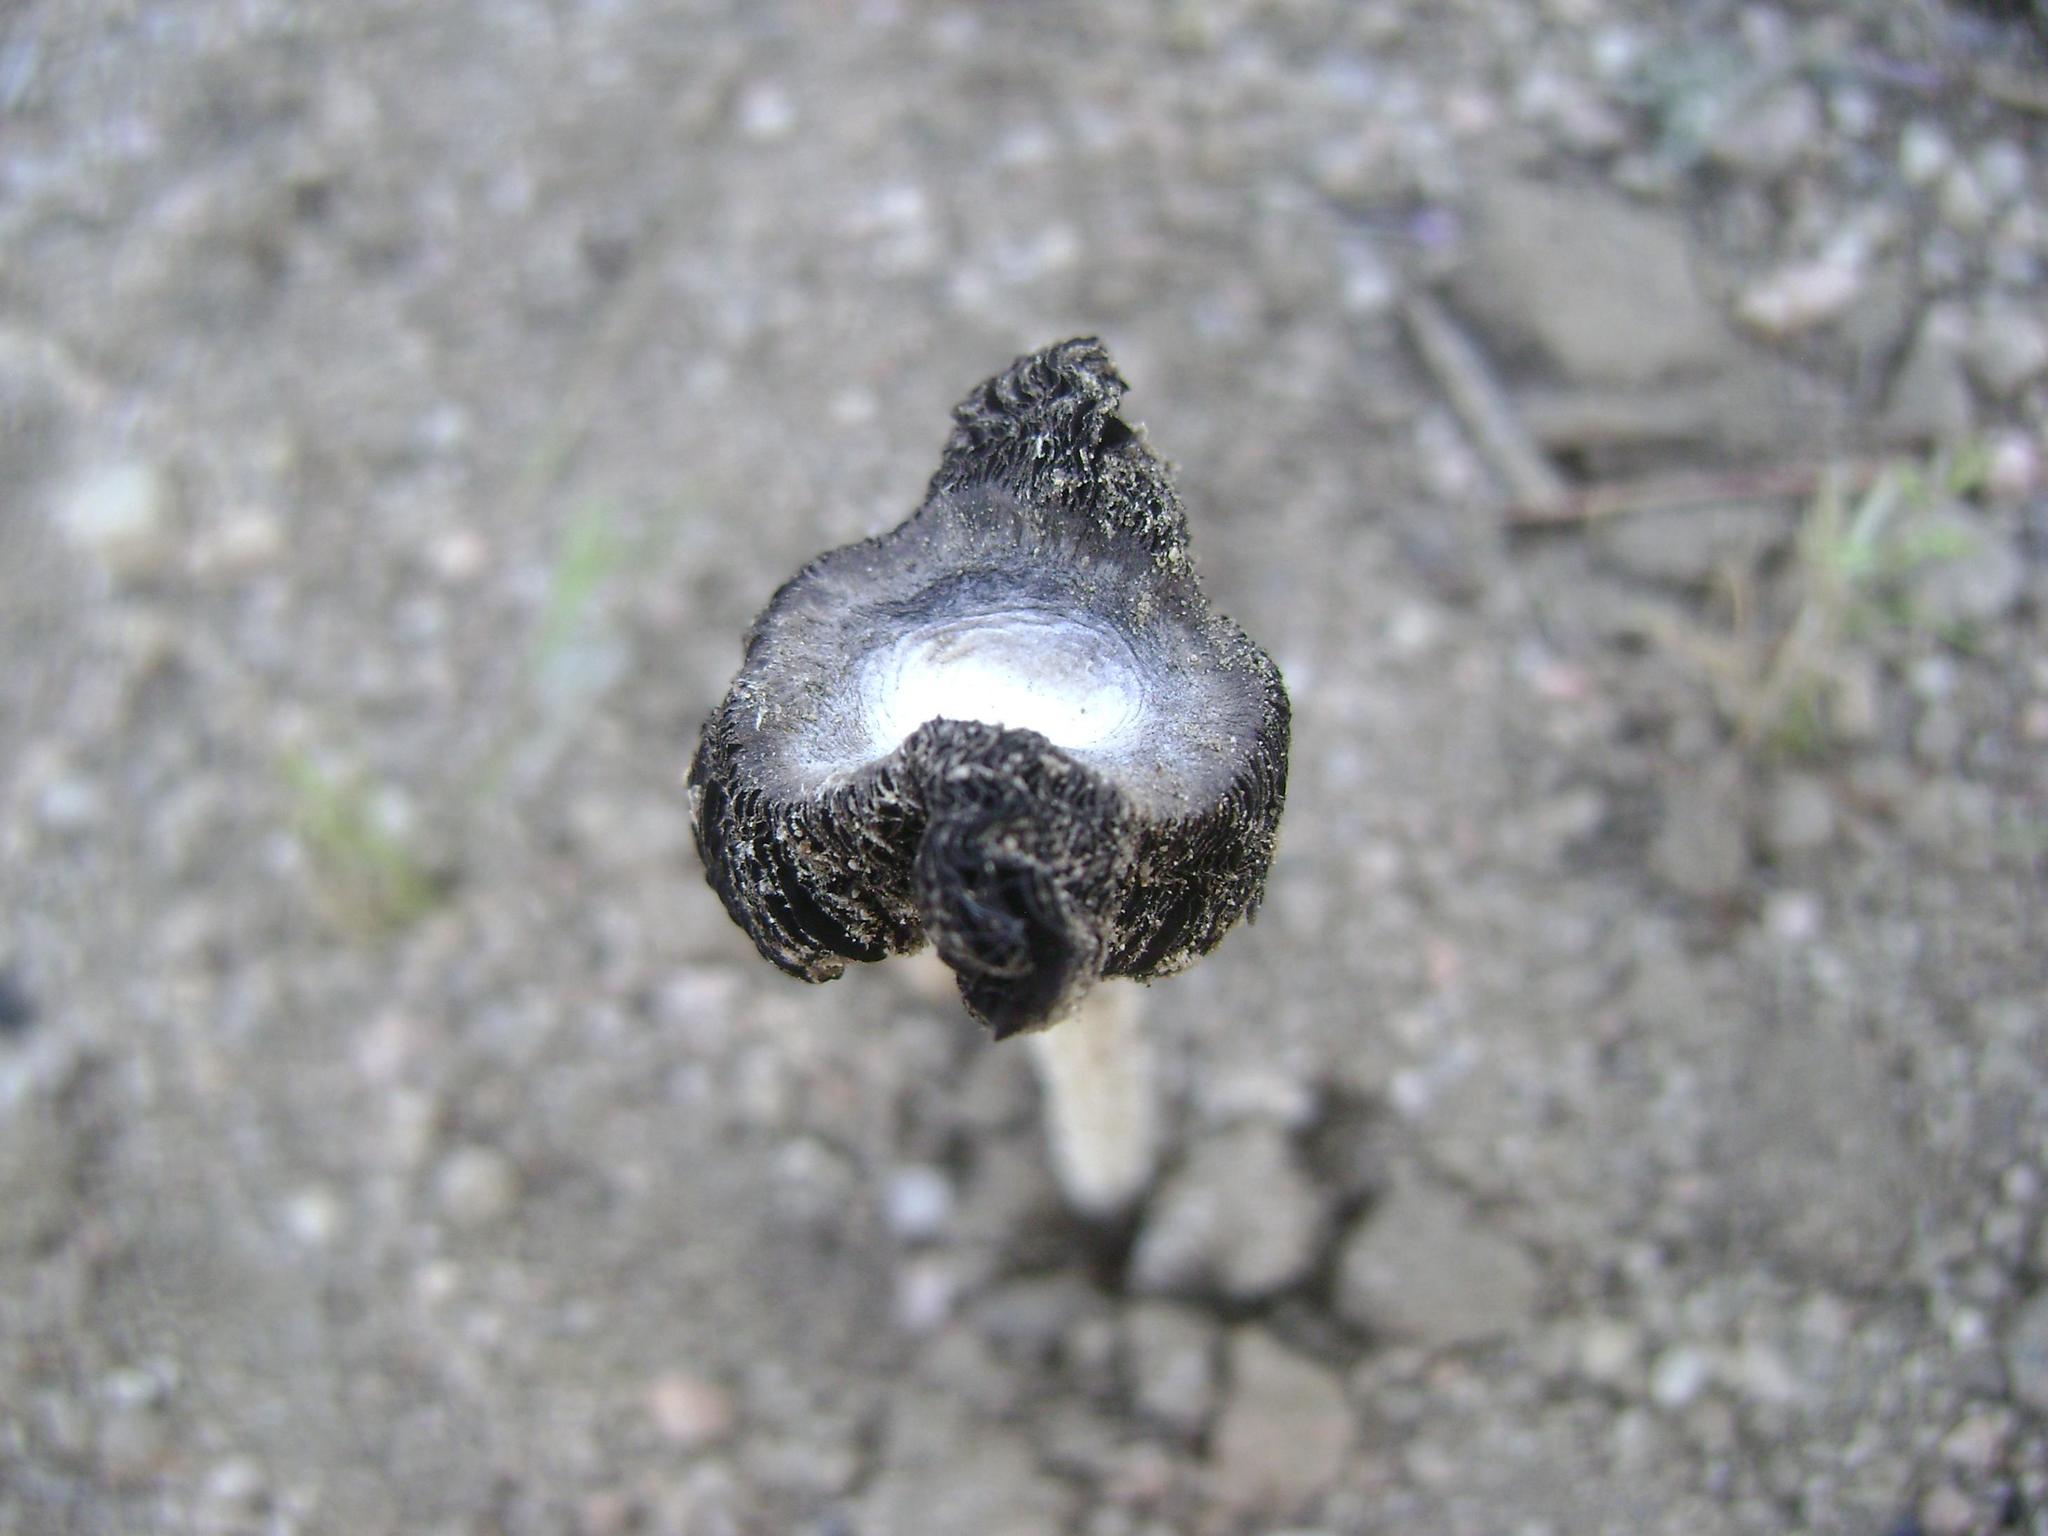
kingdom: Fungi
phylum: Basidiomycota
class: Agaricomycetes
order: Agaricales
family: Agaricaceae
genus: Montagnea
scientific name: Montagnea arenaria
